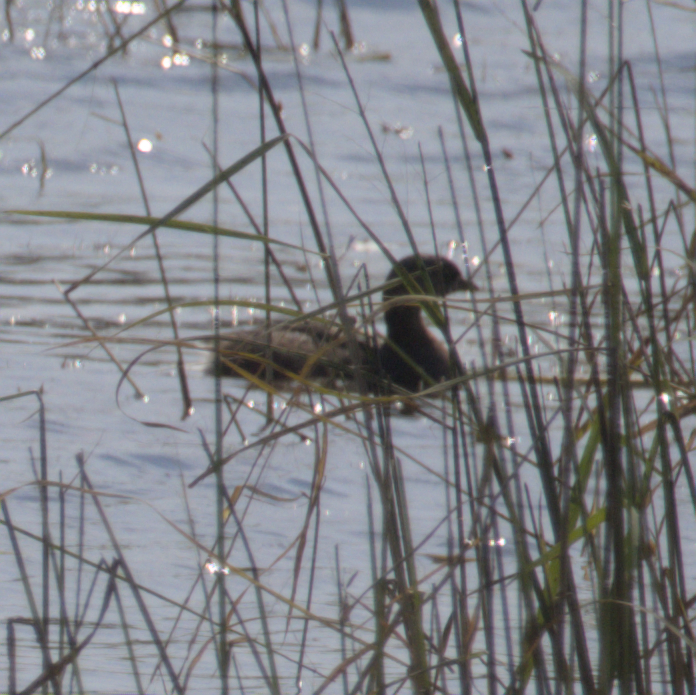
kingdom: Animalia
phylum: Chordata
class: Aves
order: Podicipediformes
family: Podicipedidae
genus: Podilymbus
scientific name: Podilymbus podiceps
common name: Pied-billed grebe
